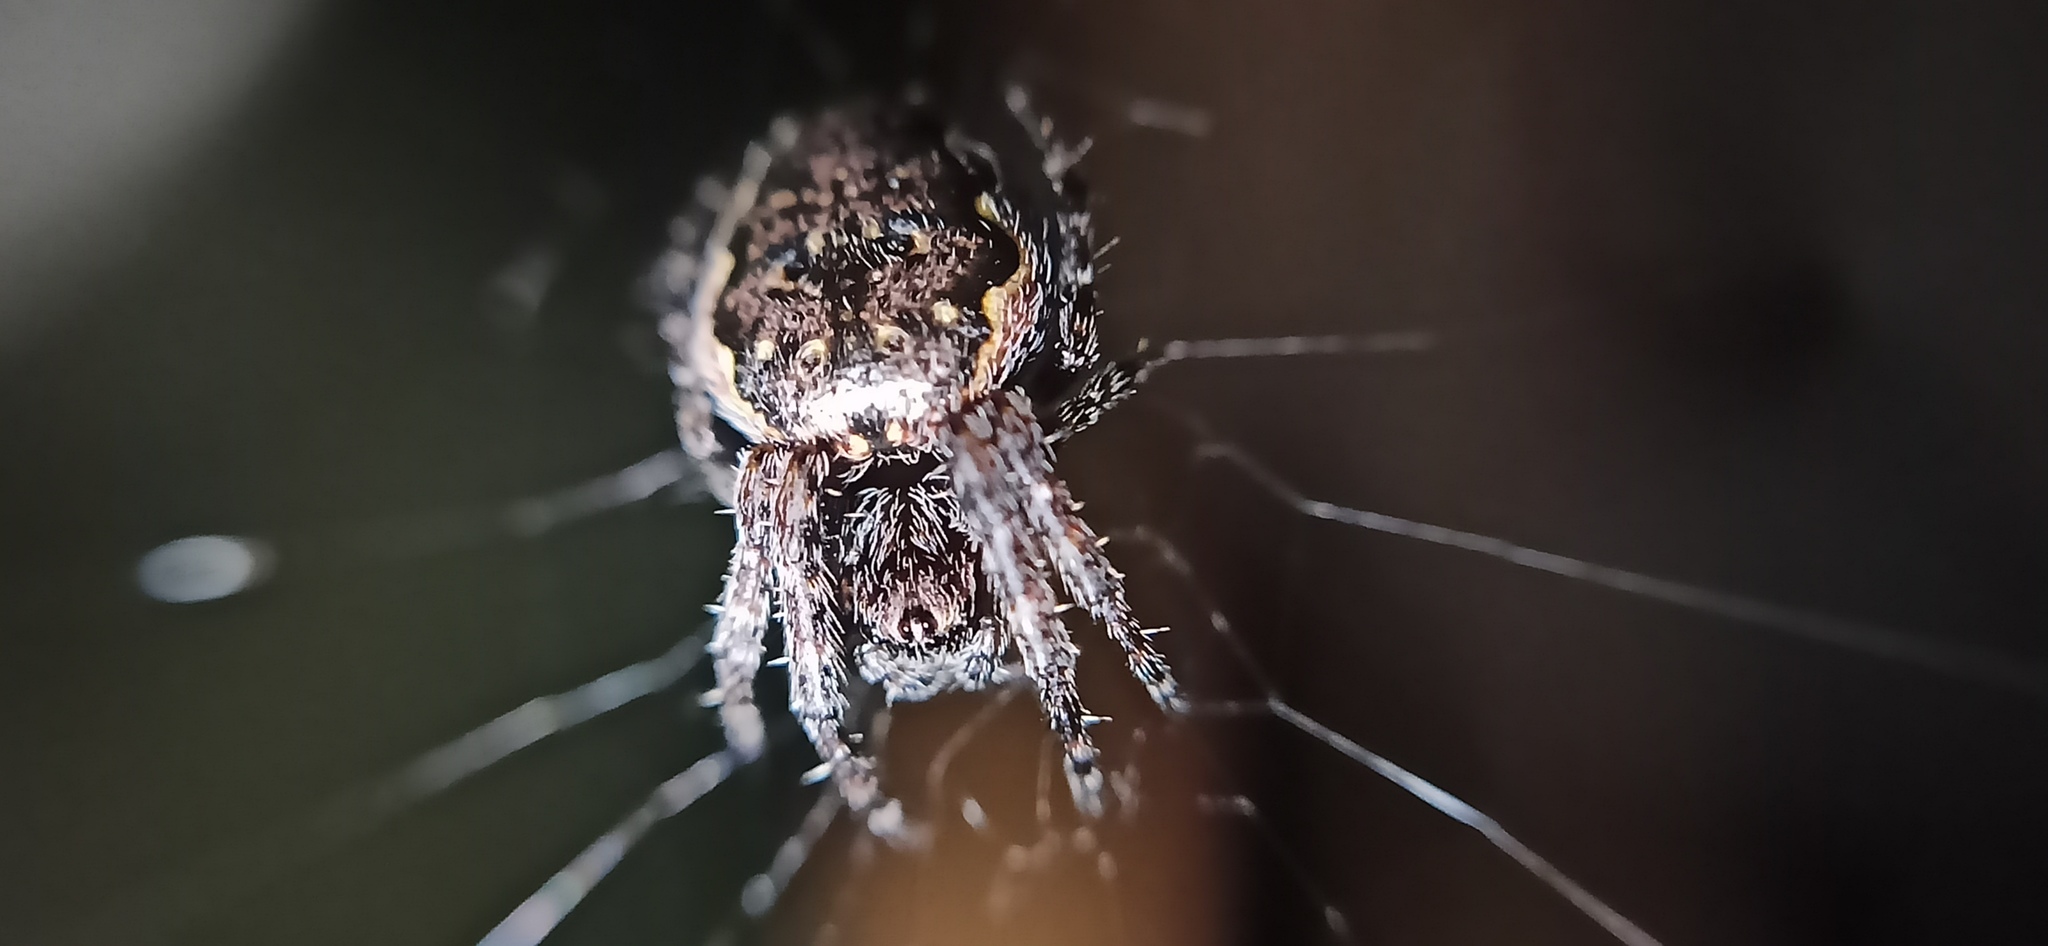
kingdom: Animalia
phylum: Arthropoda
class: Arachnida
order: Araneae
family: Araneidae
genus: Nuctenea
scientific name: Nuctenea umbratica
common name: Toad spider
